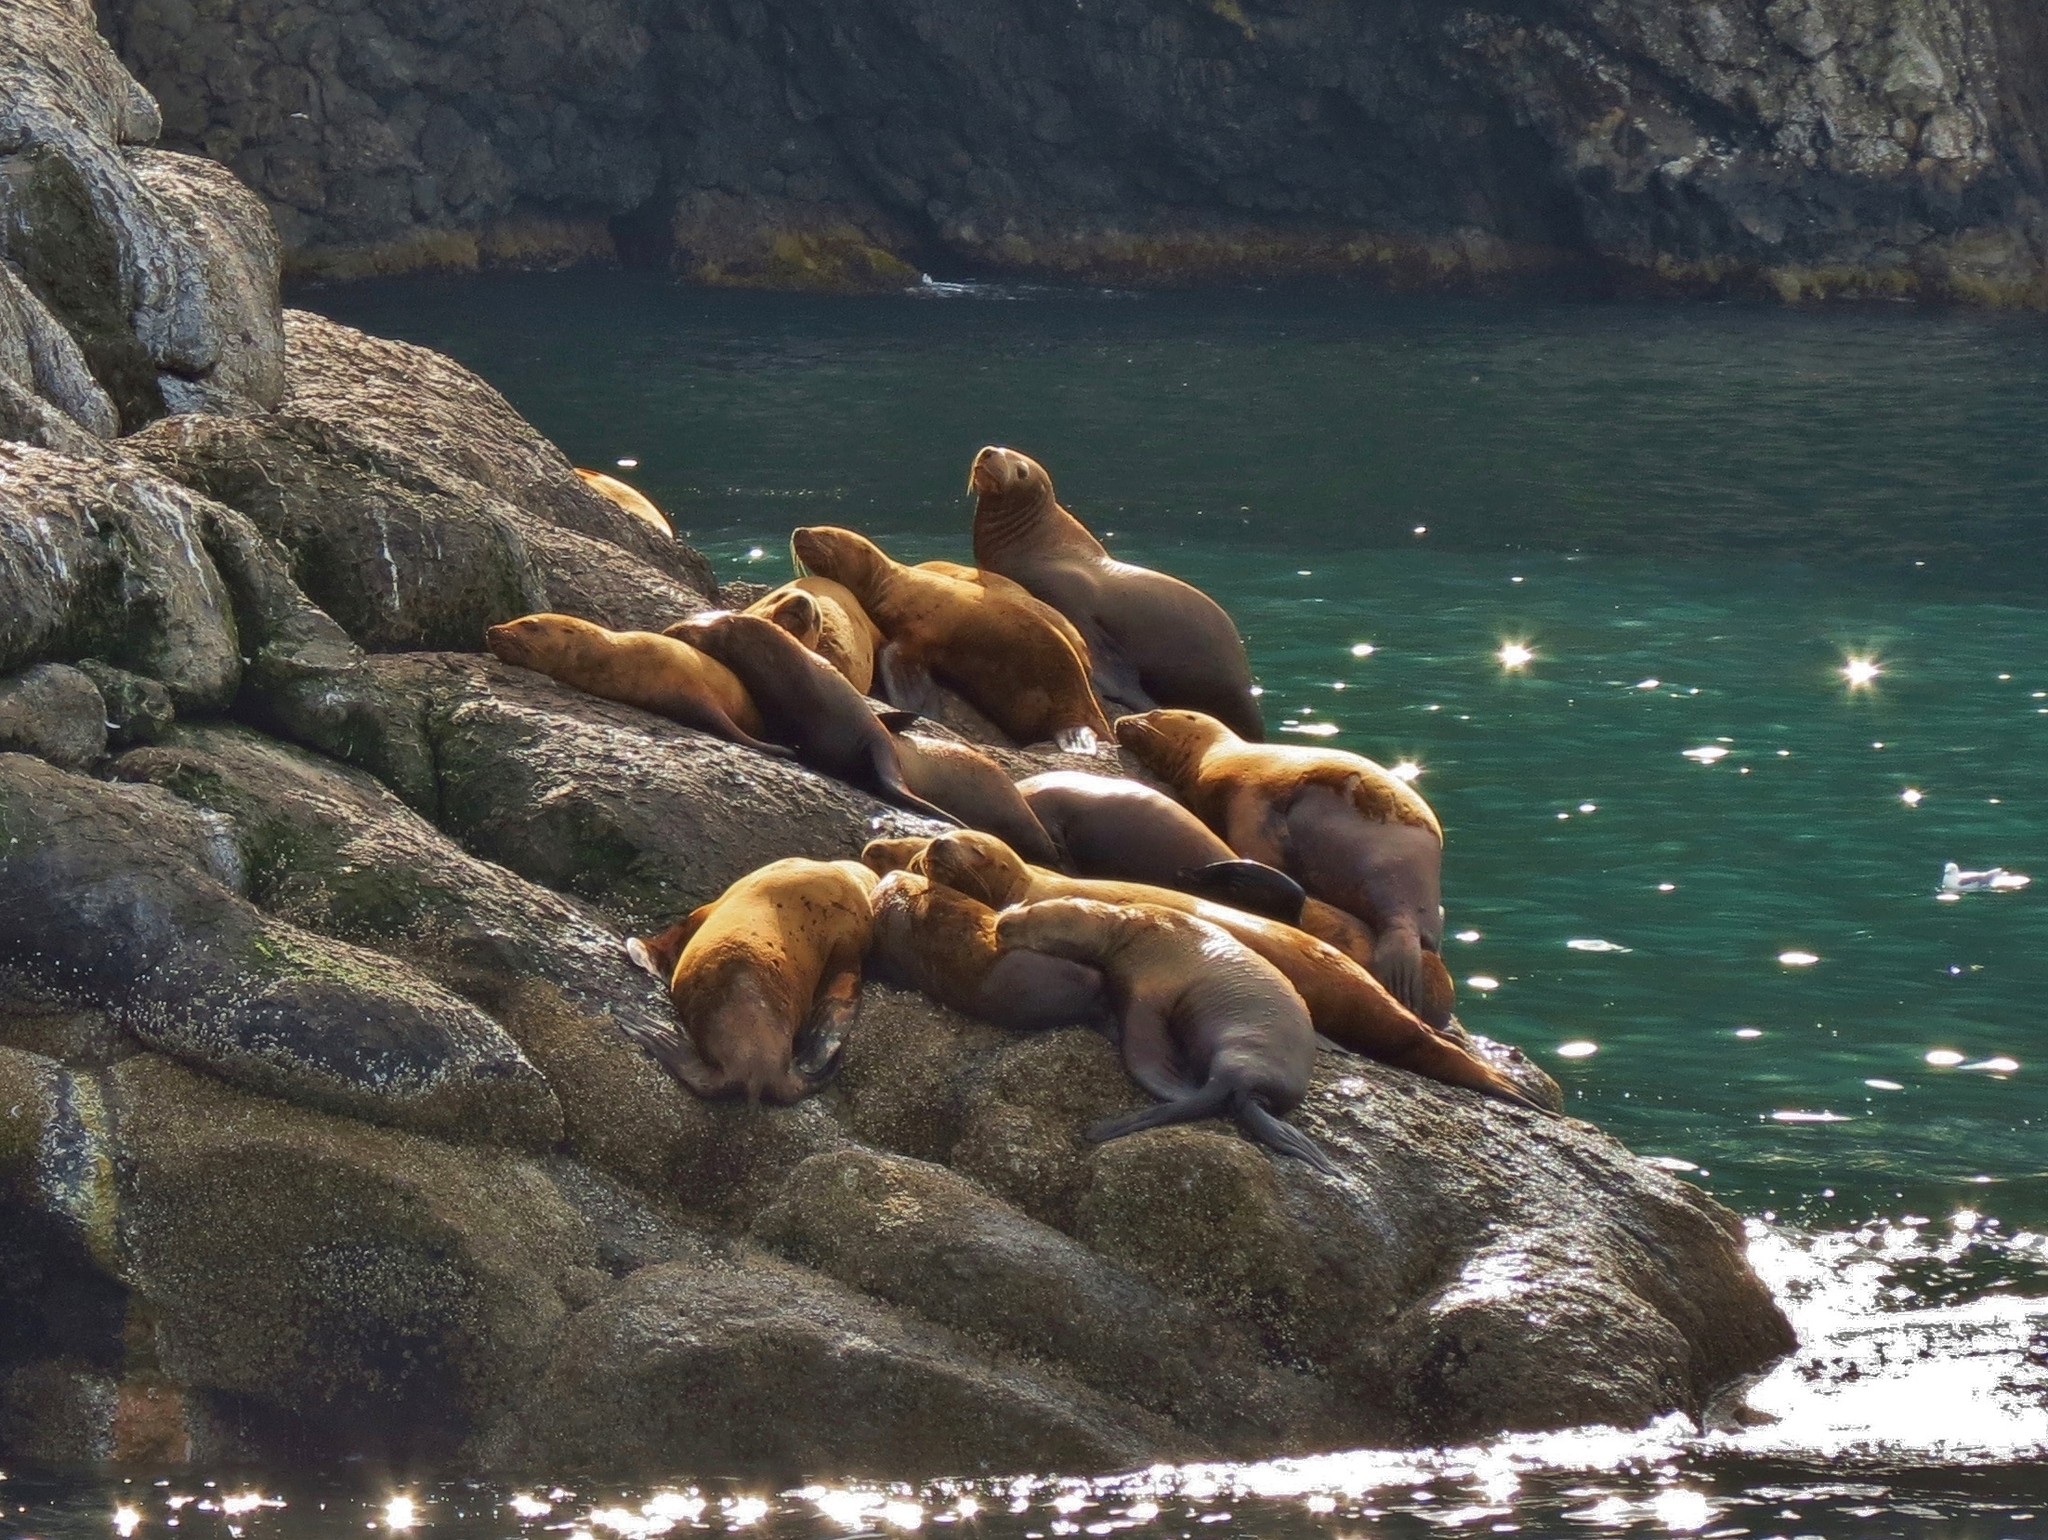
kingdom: Animalia
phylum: Chordata
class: Mammalia
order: Carnivora
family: Otariidae
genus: Eumetopias
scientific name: Eumetopias jubatus
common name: Steller sea lion
